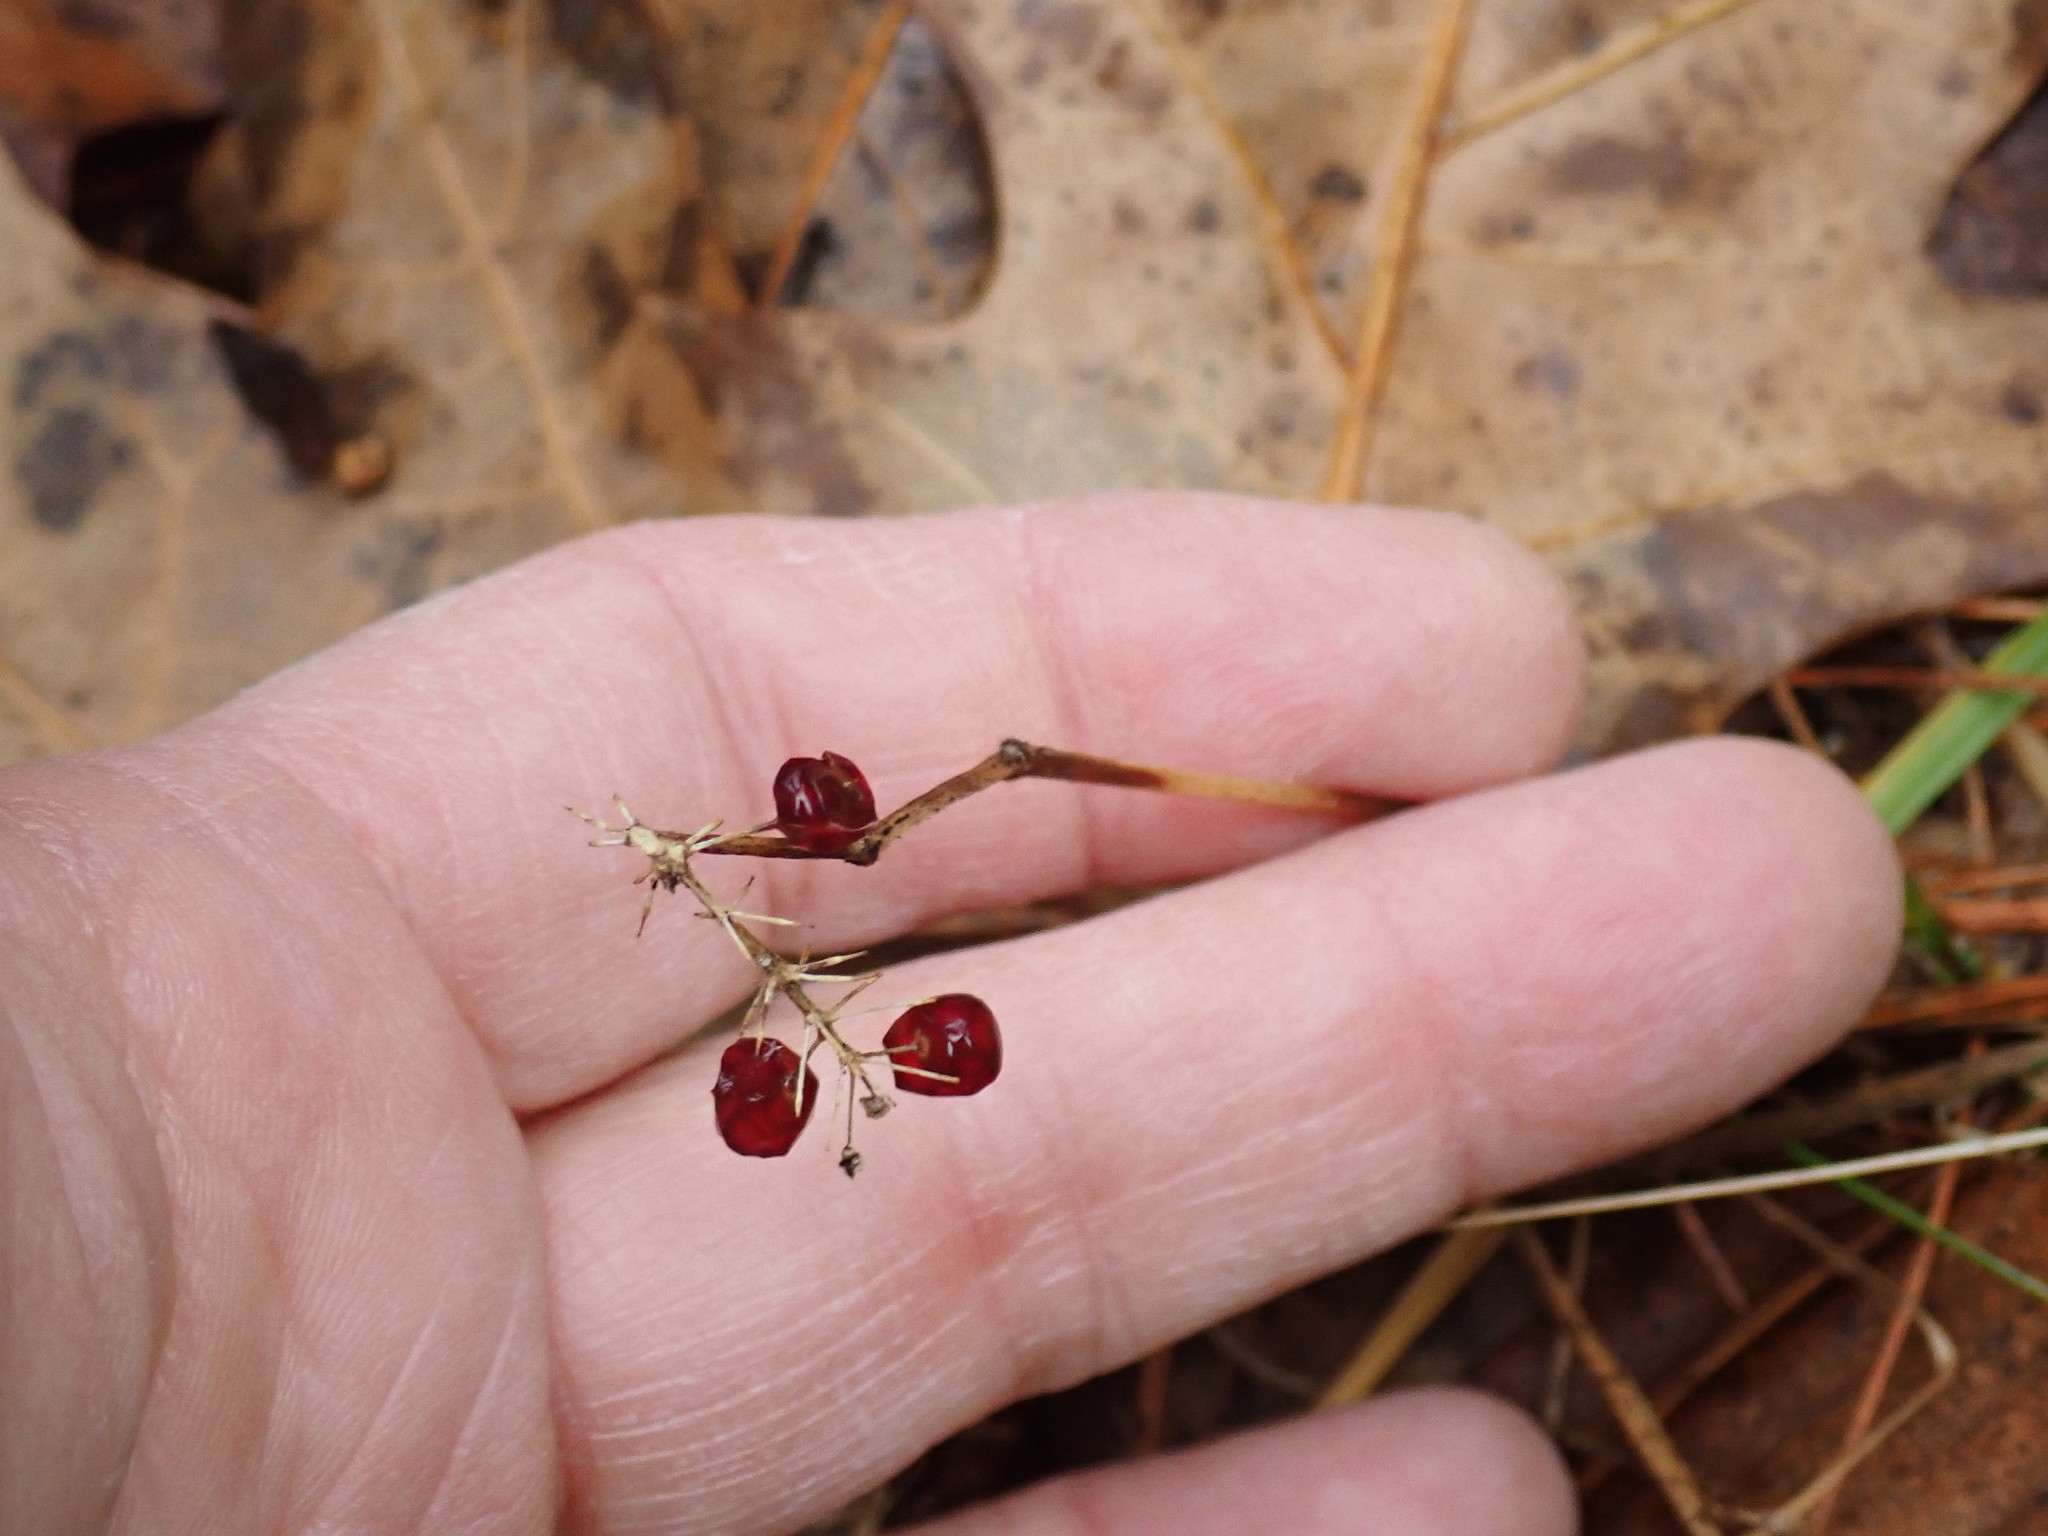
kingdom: Plantae
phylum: Tracheophyta
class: Liliopsida
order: Asparagales
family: Asparagaceae
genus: Maianthemum
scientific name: Maianthemum canadense
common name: False lily-of-the-valley
